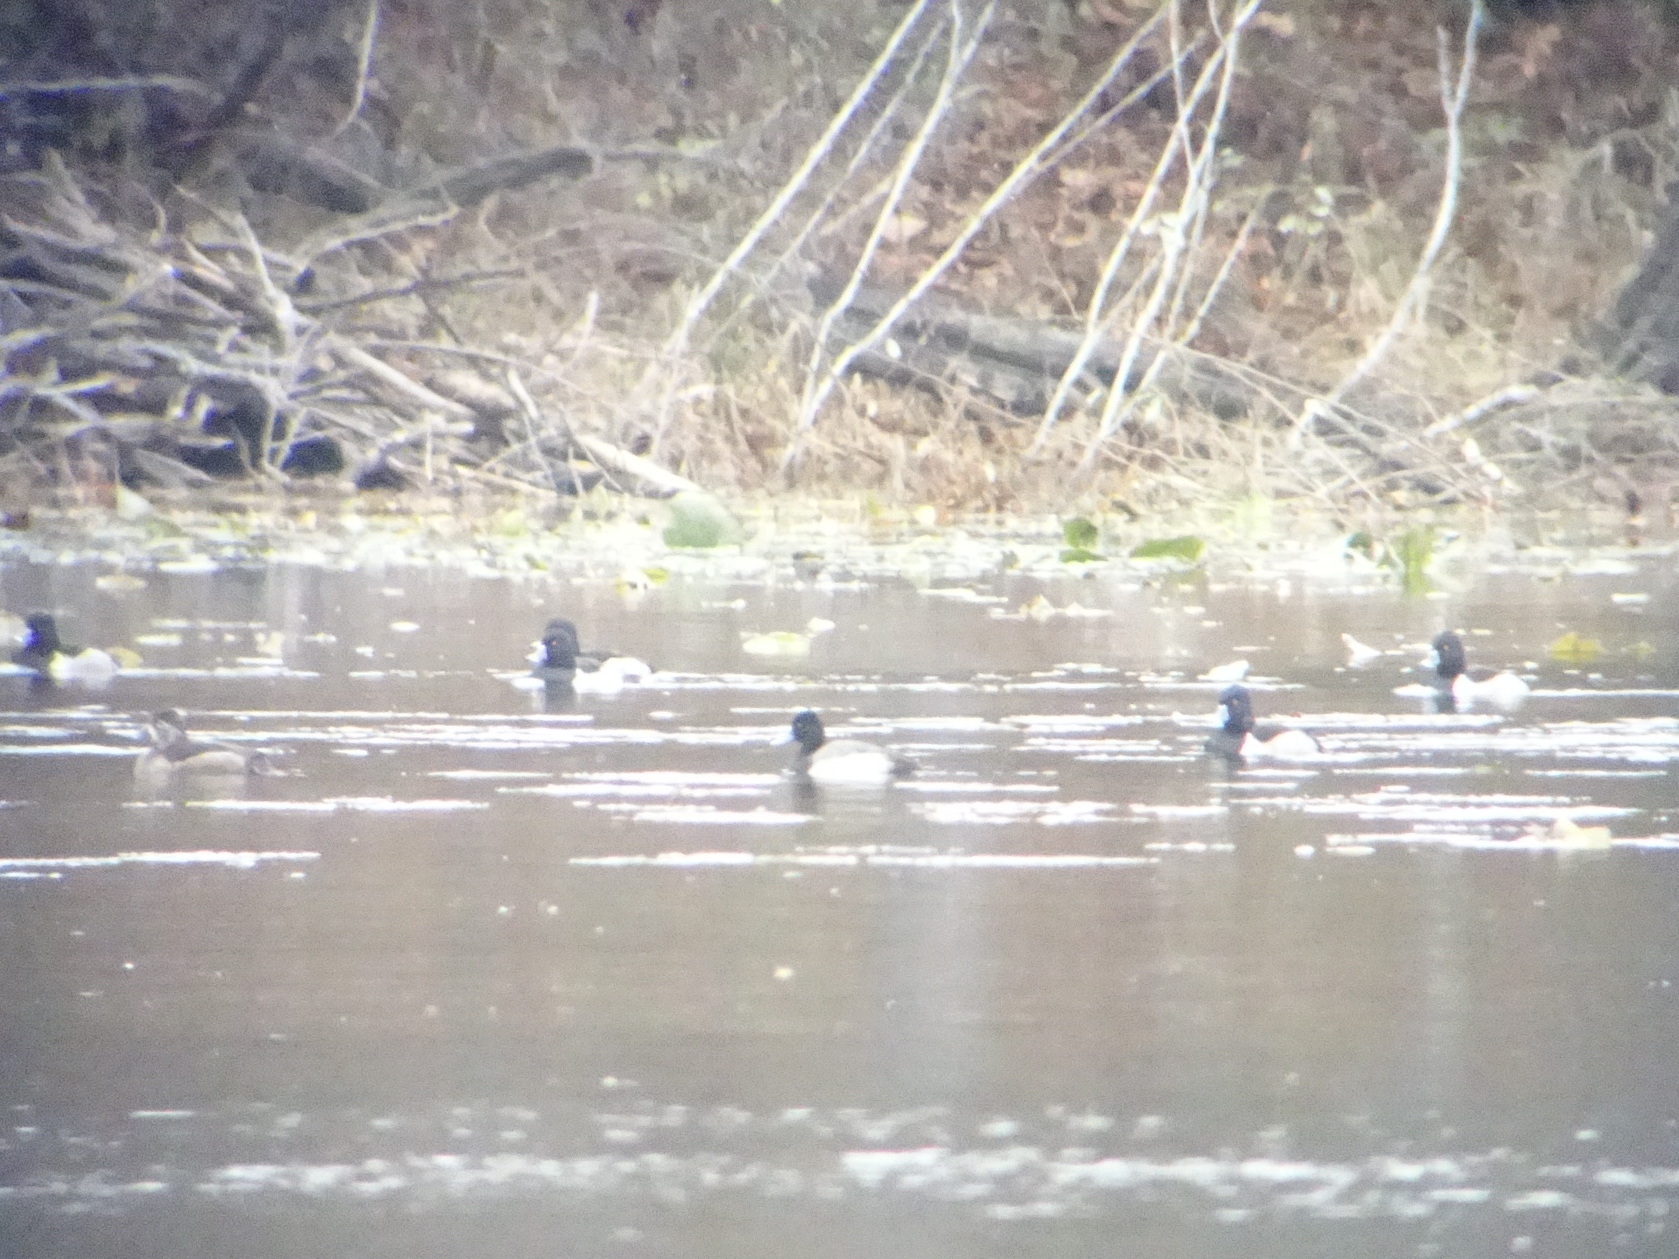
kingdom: Animalia
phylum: Chordata
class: Aves
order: Anseriformes
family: Anatidae
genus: Aythya
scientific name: Aythya affinis
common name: Lesser scaup
